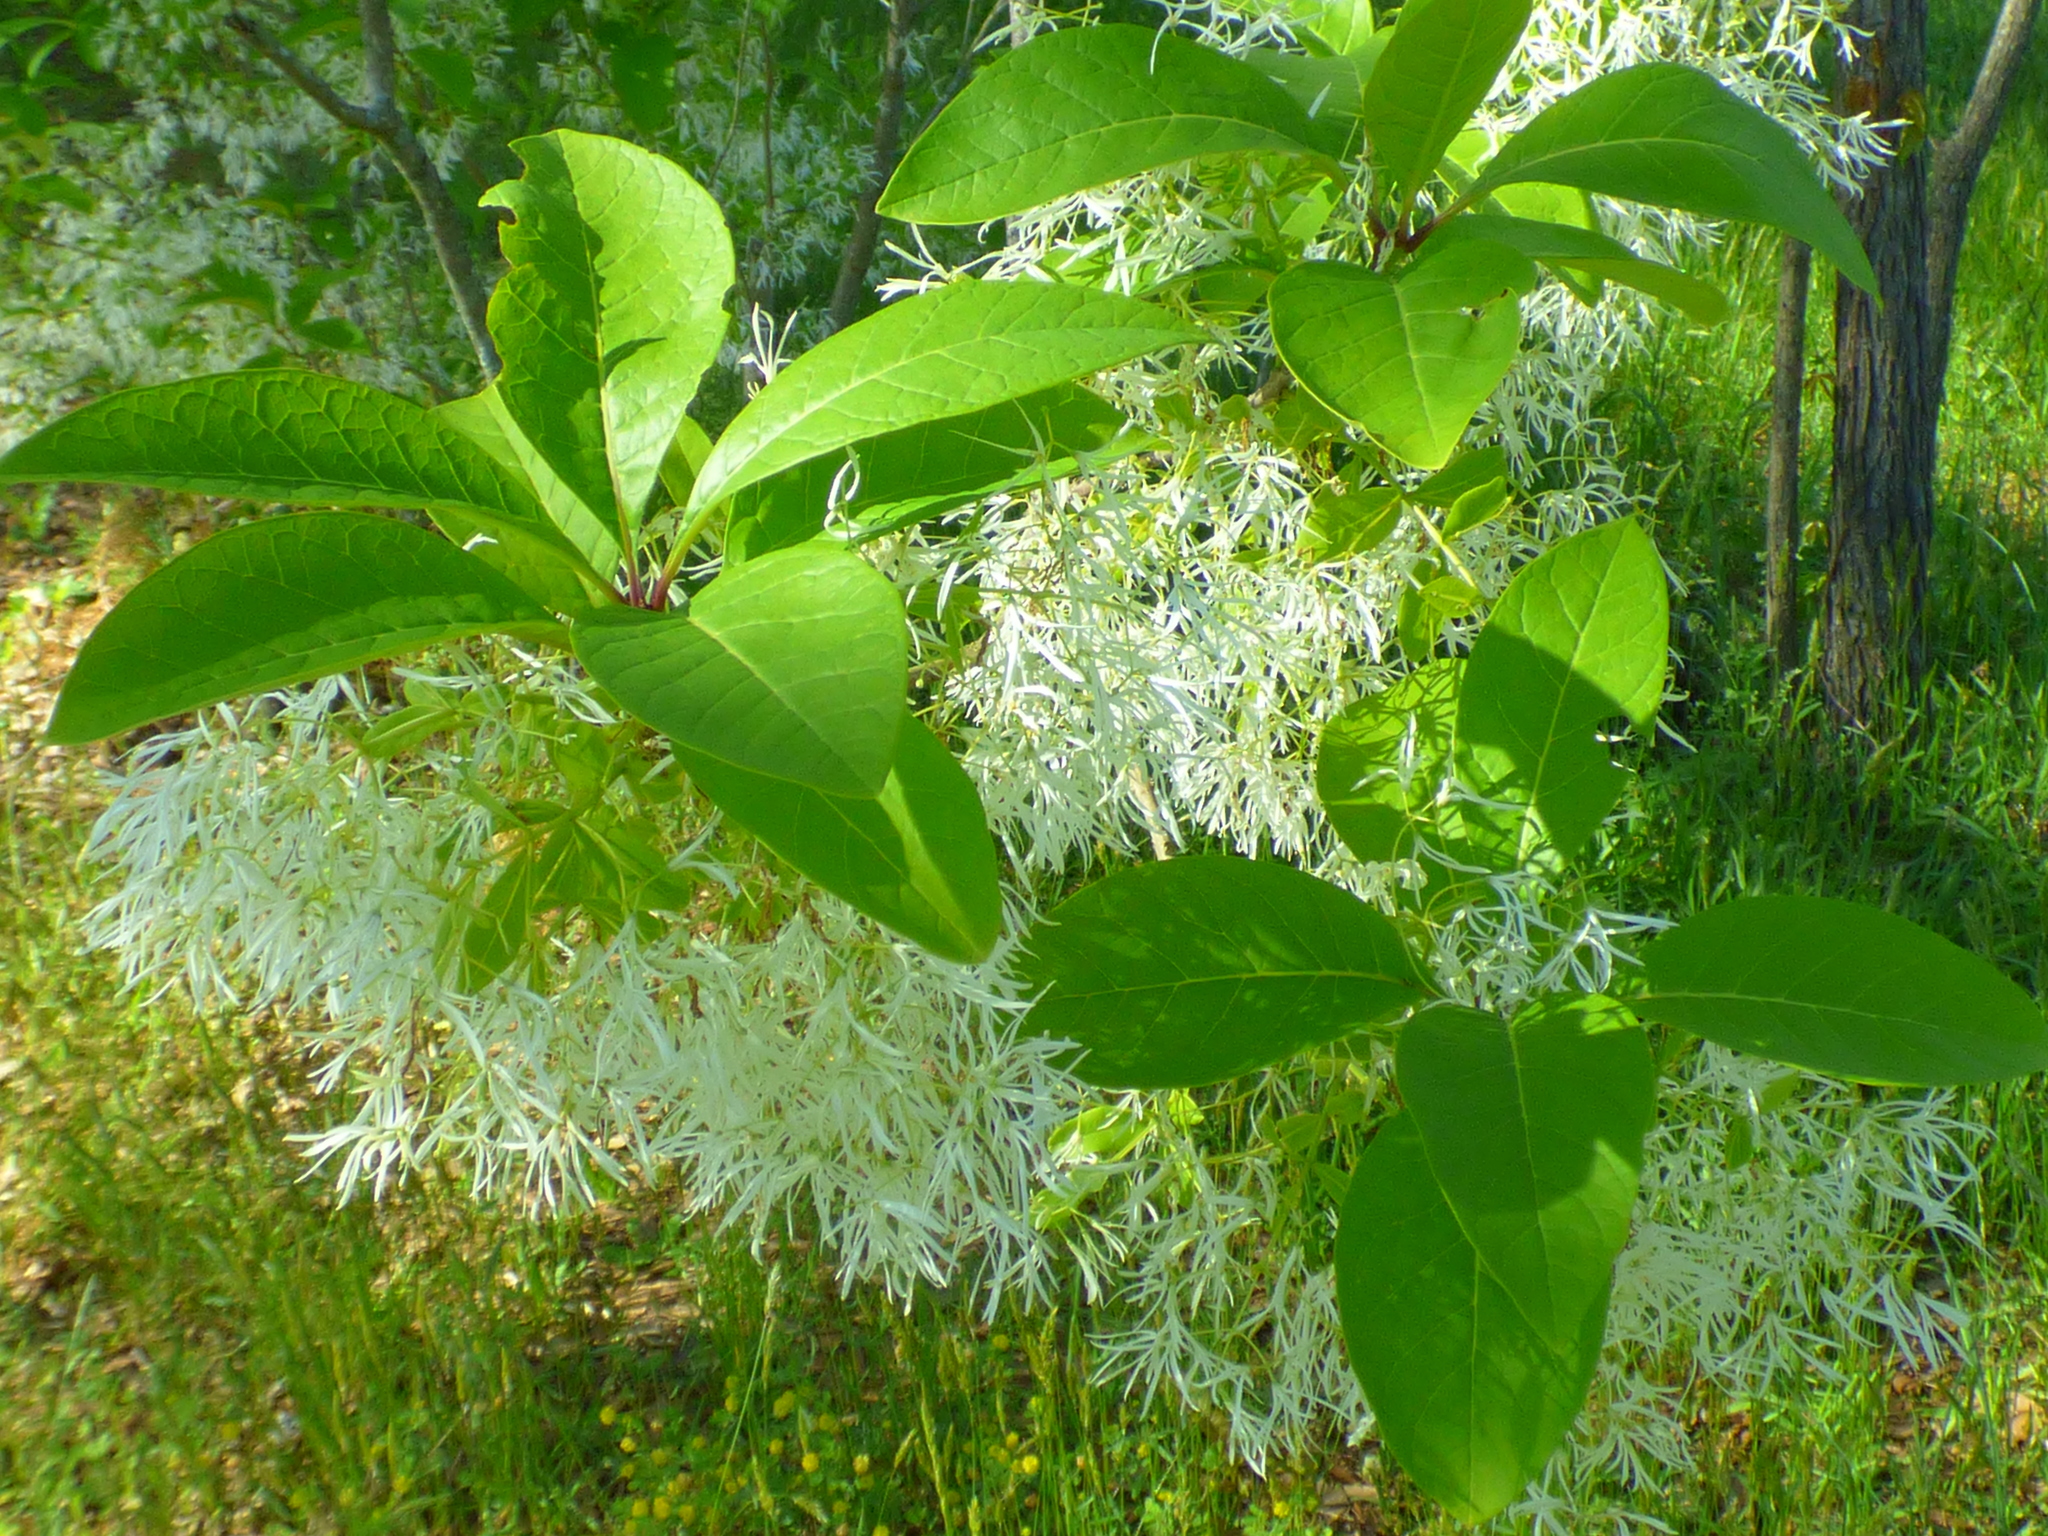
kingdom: Plantae
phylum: Tracheophyta
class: Magnoliopsida
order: Lamiales
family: Oleaceae
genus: Chionanthus
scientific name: Chionanthus virginicus
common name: American fringetree
